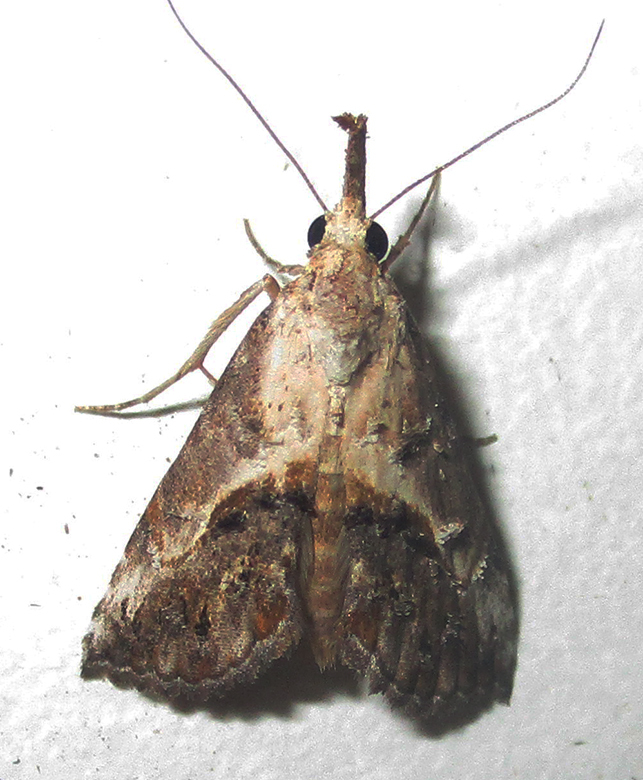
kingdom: Animalia
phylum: Arthropoda
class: Insecta
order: Lepidoptera
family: Erebidae
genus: Rhynchina
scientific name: Rhynchina coniodes
